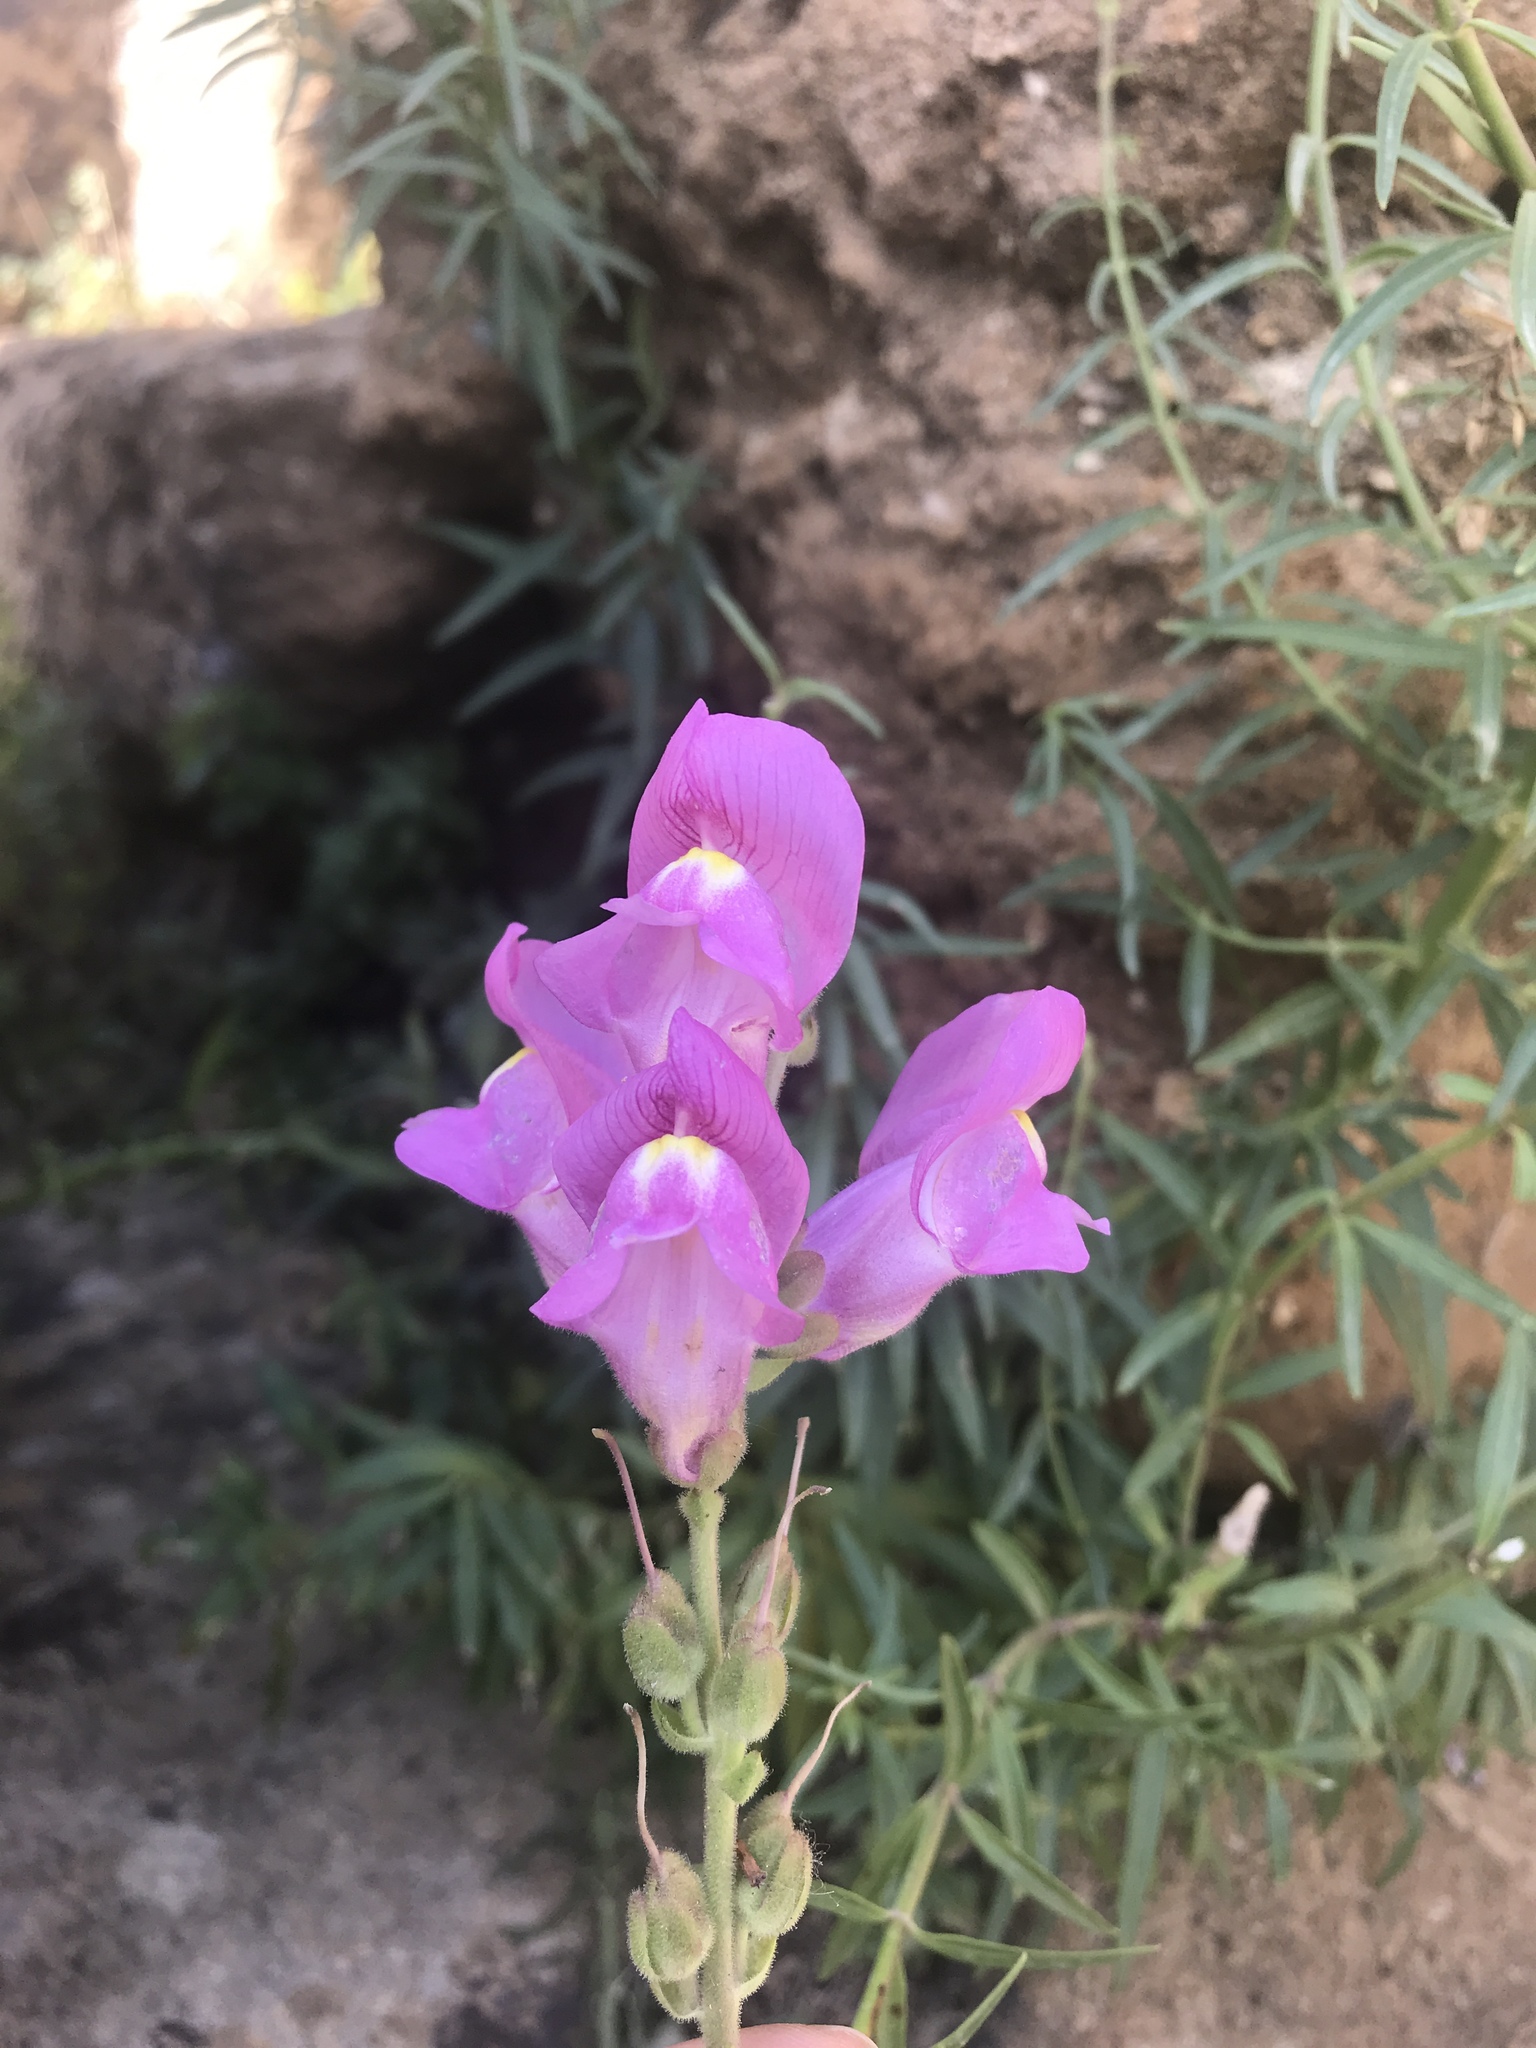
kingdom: Plantae
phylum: Tracheophyta
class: Magnoliopsida
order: Lamiales
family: Plantaginaceae
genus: Antirrhinum
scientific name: Antirrhinum tortuosum
